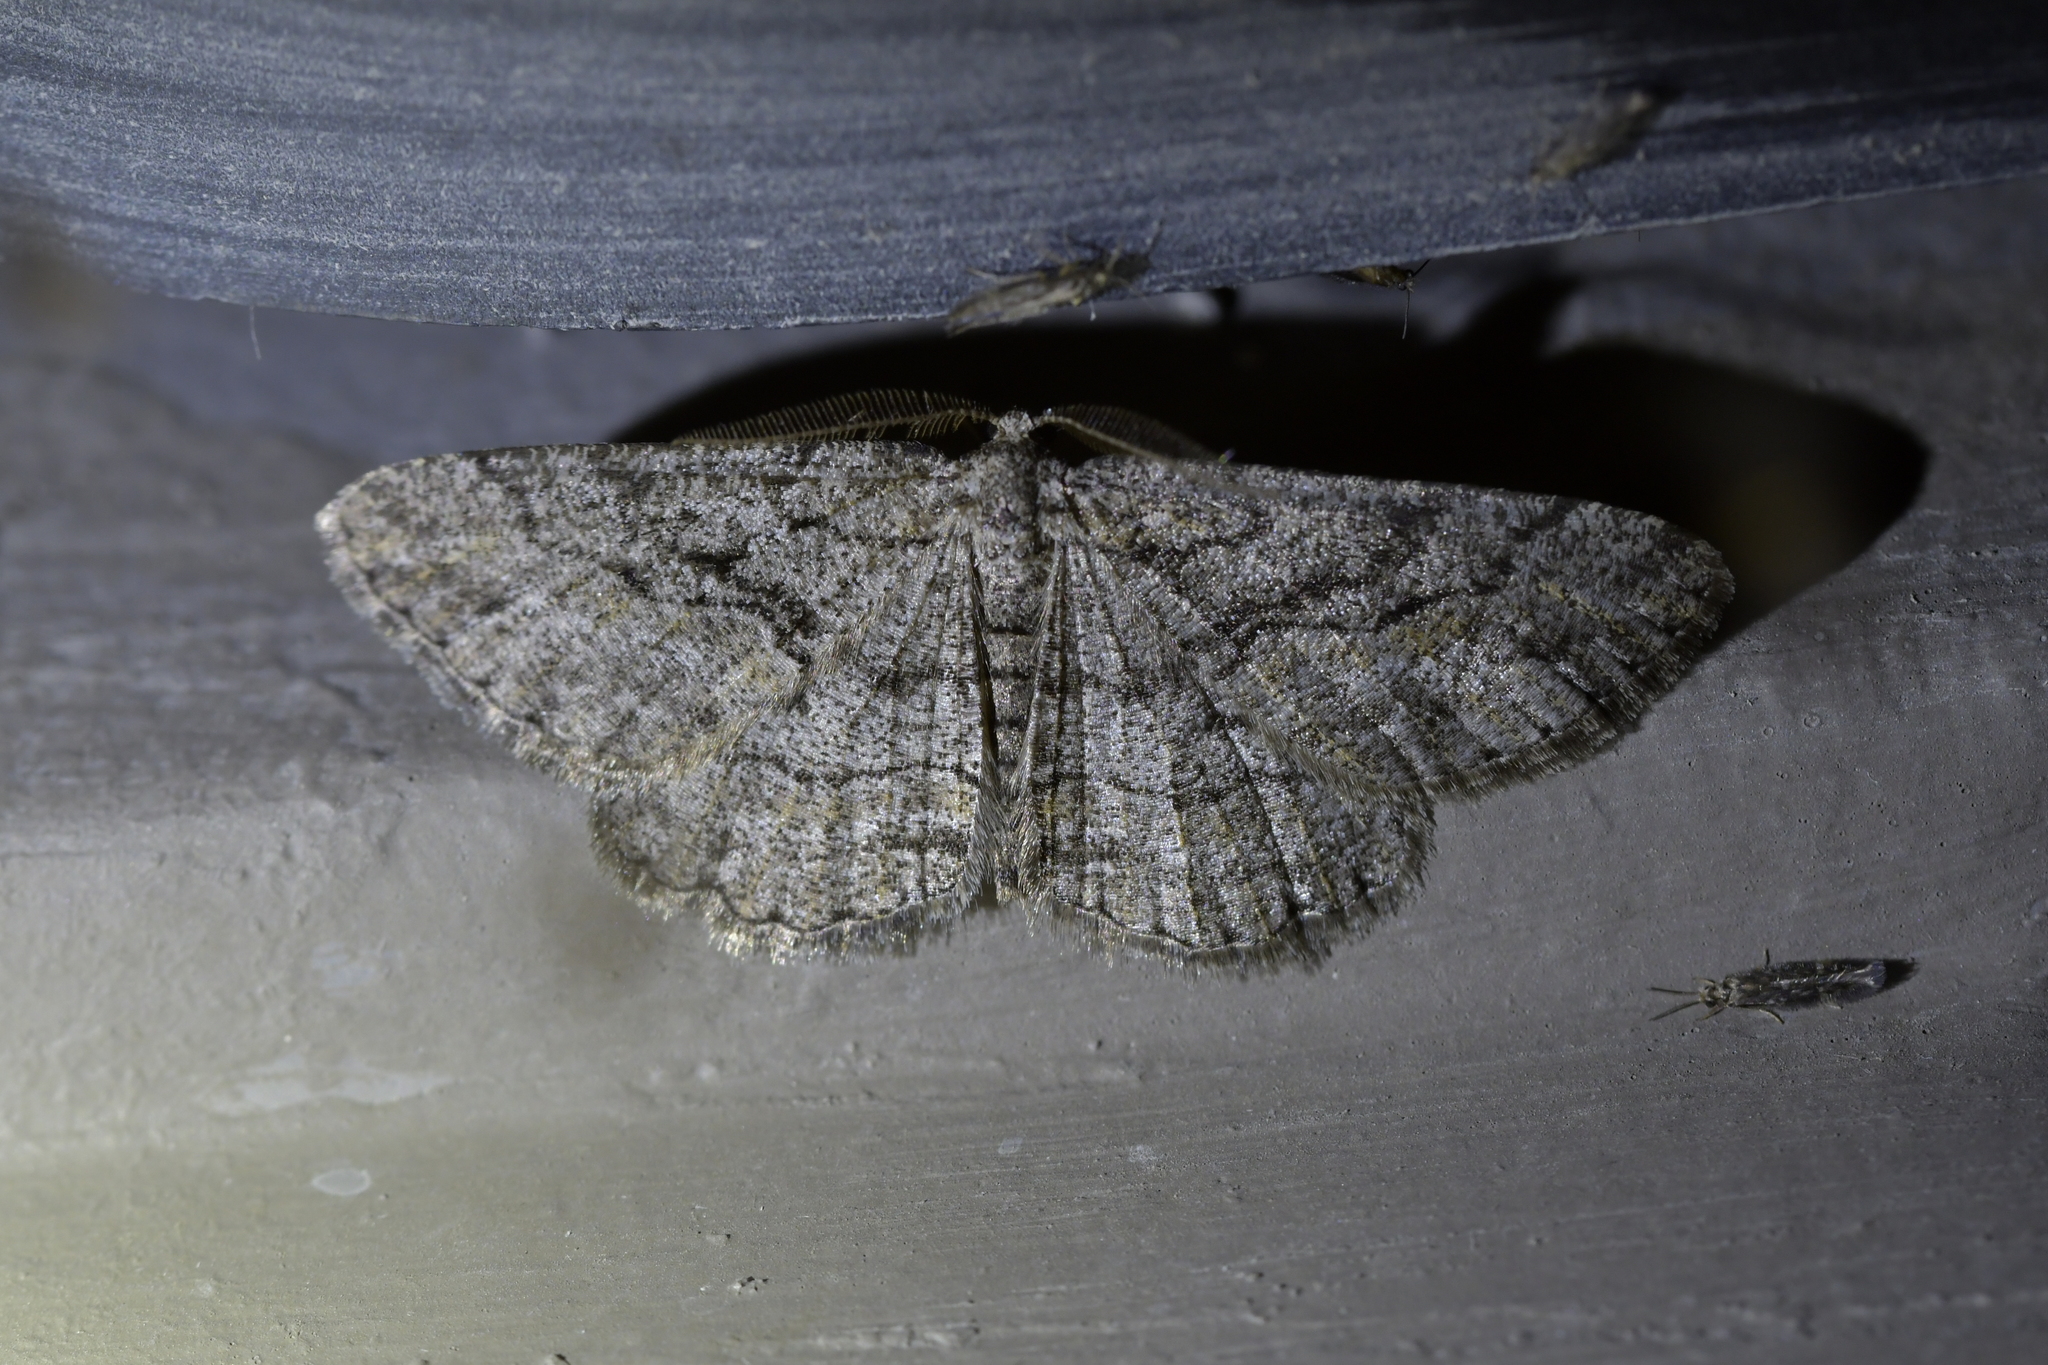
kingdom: Animalia
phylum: Arthropoda
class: Insecta
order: Lepidoptera
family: Geometridae
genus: Zermizinga
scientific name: Zermizinga indocilisaria
